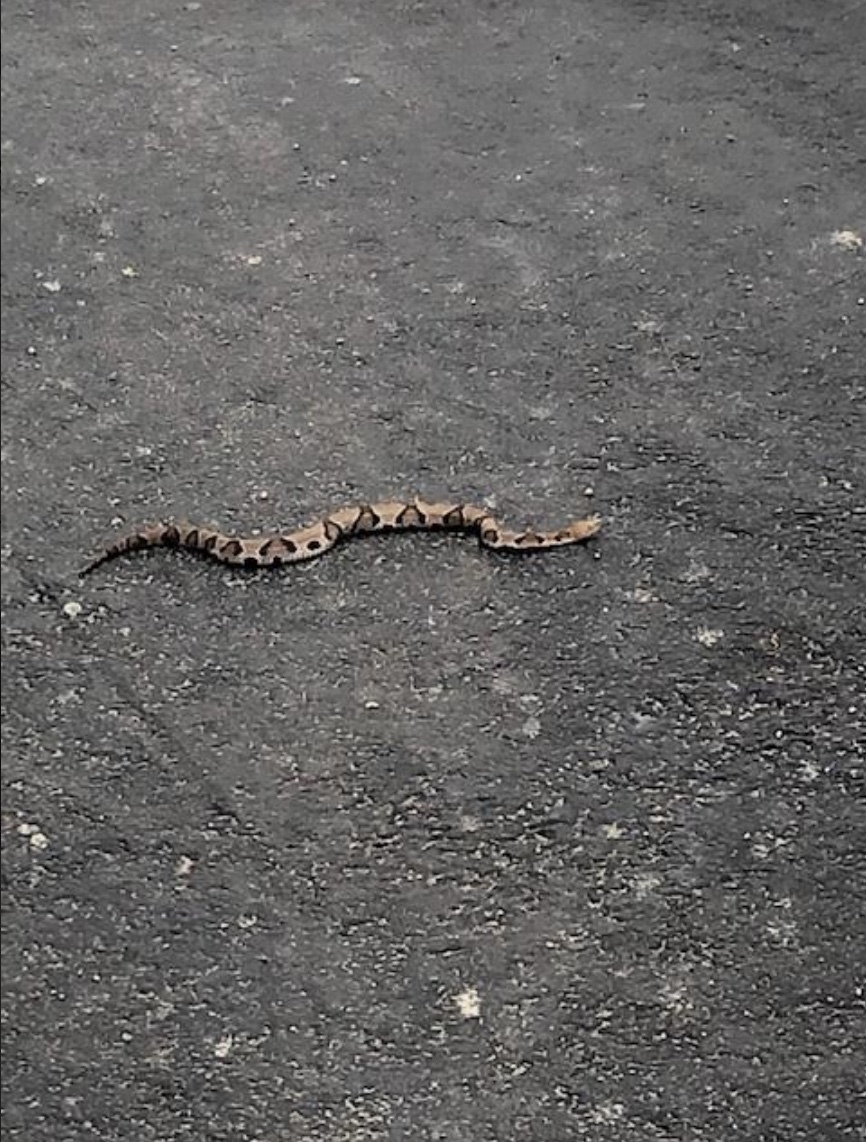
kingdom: Animalia
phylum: Chordata
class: Squamata
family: Viperidae
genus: Agkistrodon
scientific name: Agkistrodon contortrix
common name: Northern copperhead
